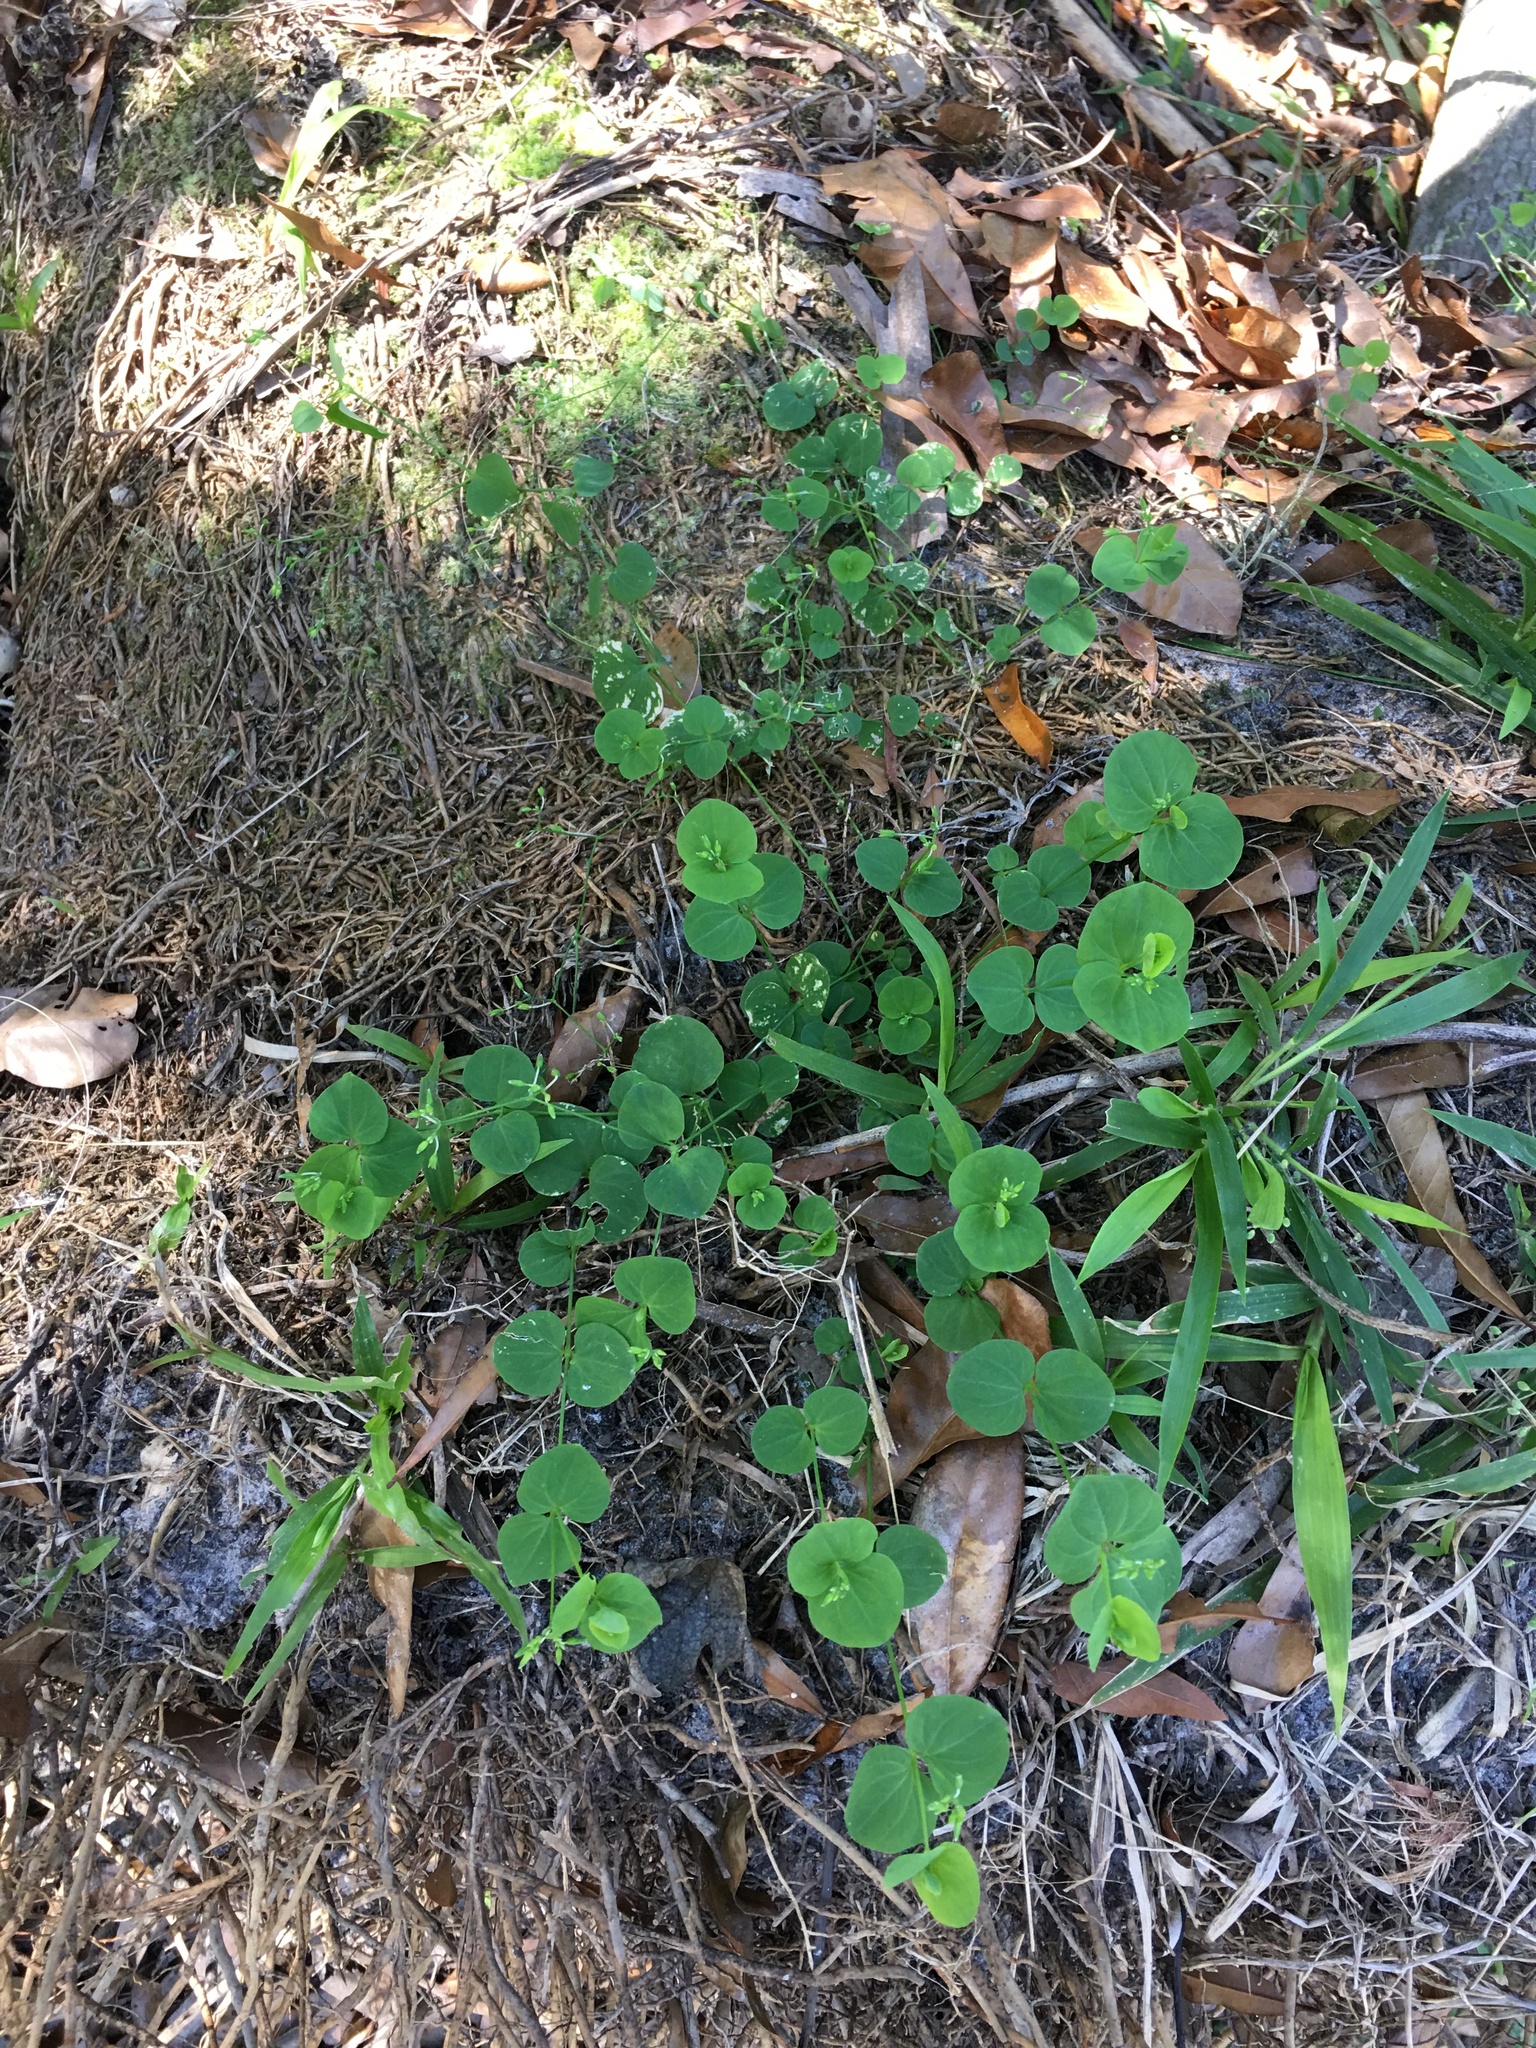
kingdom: Plantae
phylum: Tracheophyta
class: Magnoliopsida
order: Caryophyllales
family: Caryophyllaceae
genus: Drymaria
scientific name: Drymaria cordata
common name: Whitesnow
